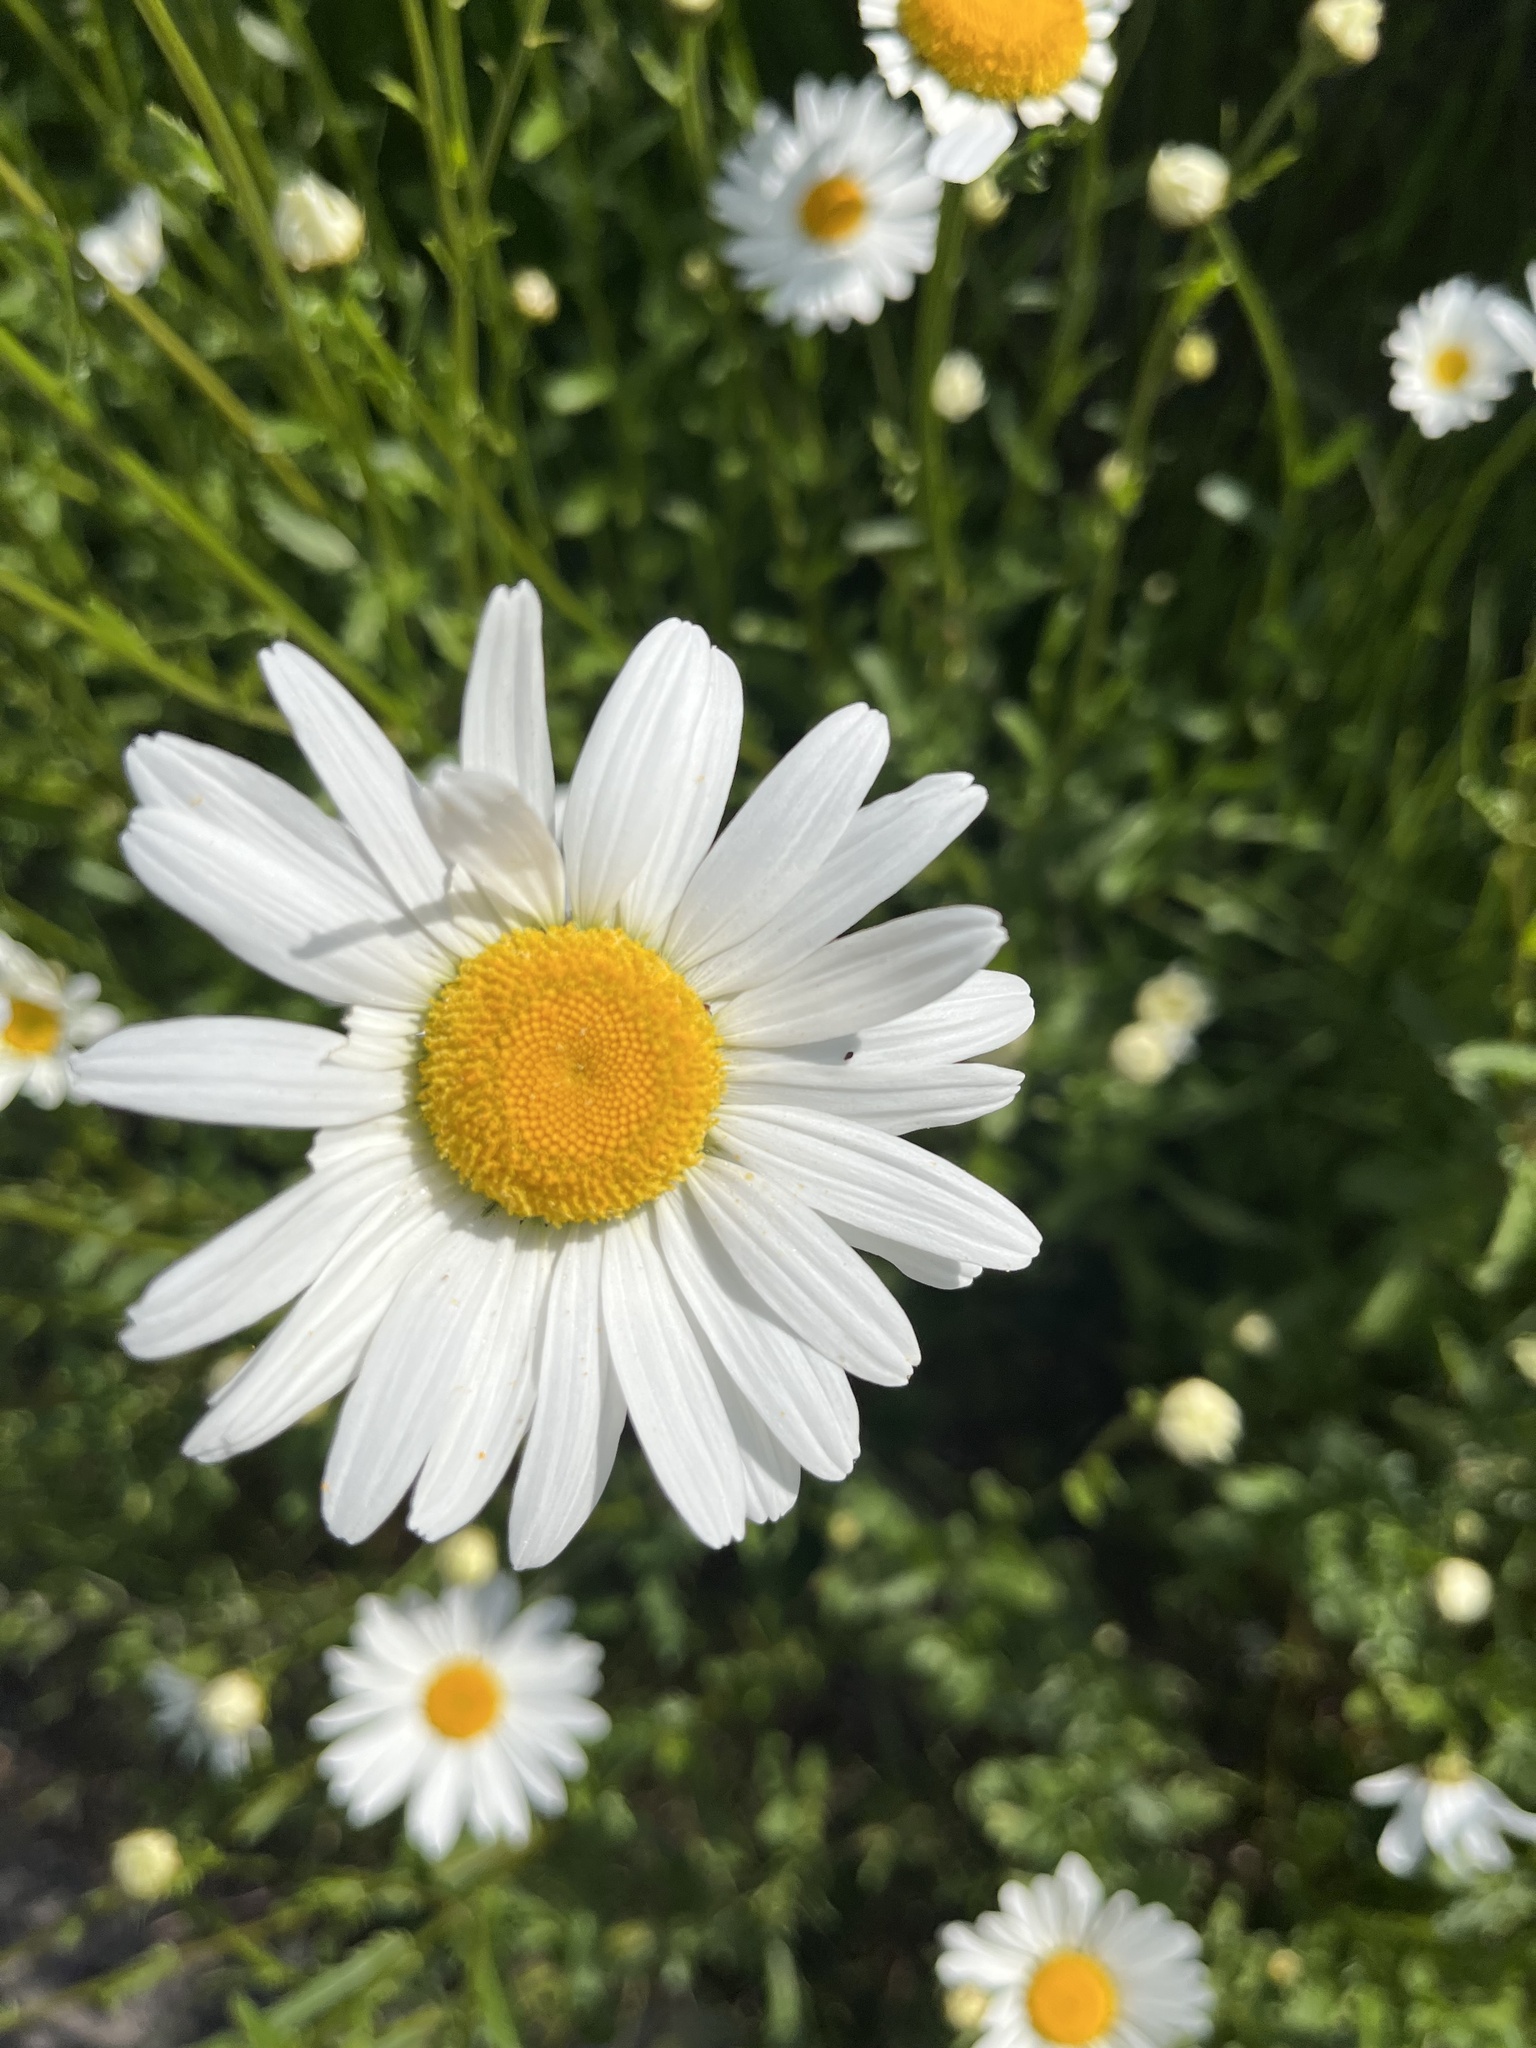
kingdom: Plantae
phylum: Tracheophyta
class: Magnoliopsida
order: Asterales
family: Asteraceae
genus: Leucanthemum
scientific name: Leucanthemum vulgare
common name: Oxeye daisy
